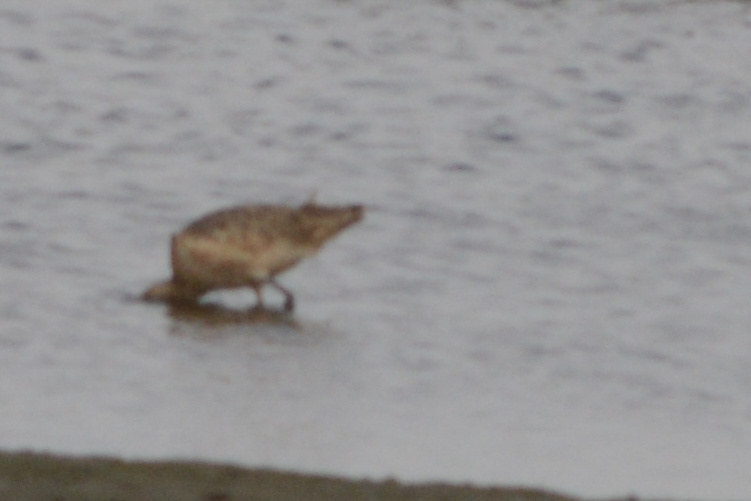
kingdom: Animalia
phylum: Chordata
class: Aves
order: Charadriiformes
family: Scolopacidae
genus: Limosa
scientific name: Limosa fedoa
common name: Marbled godwit
